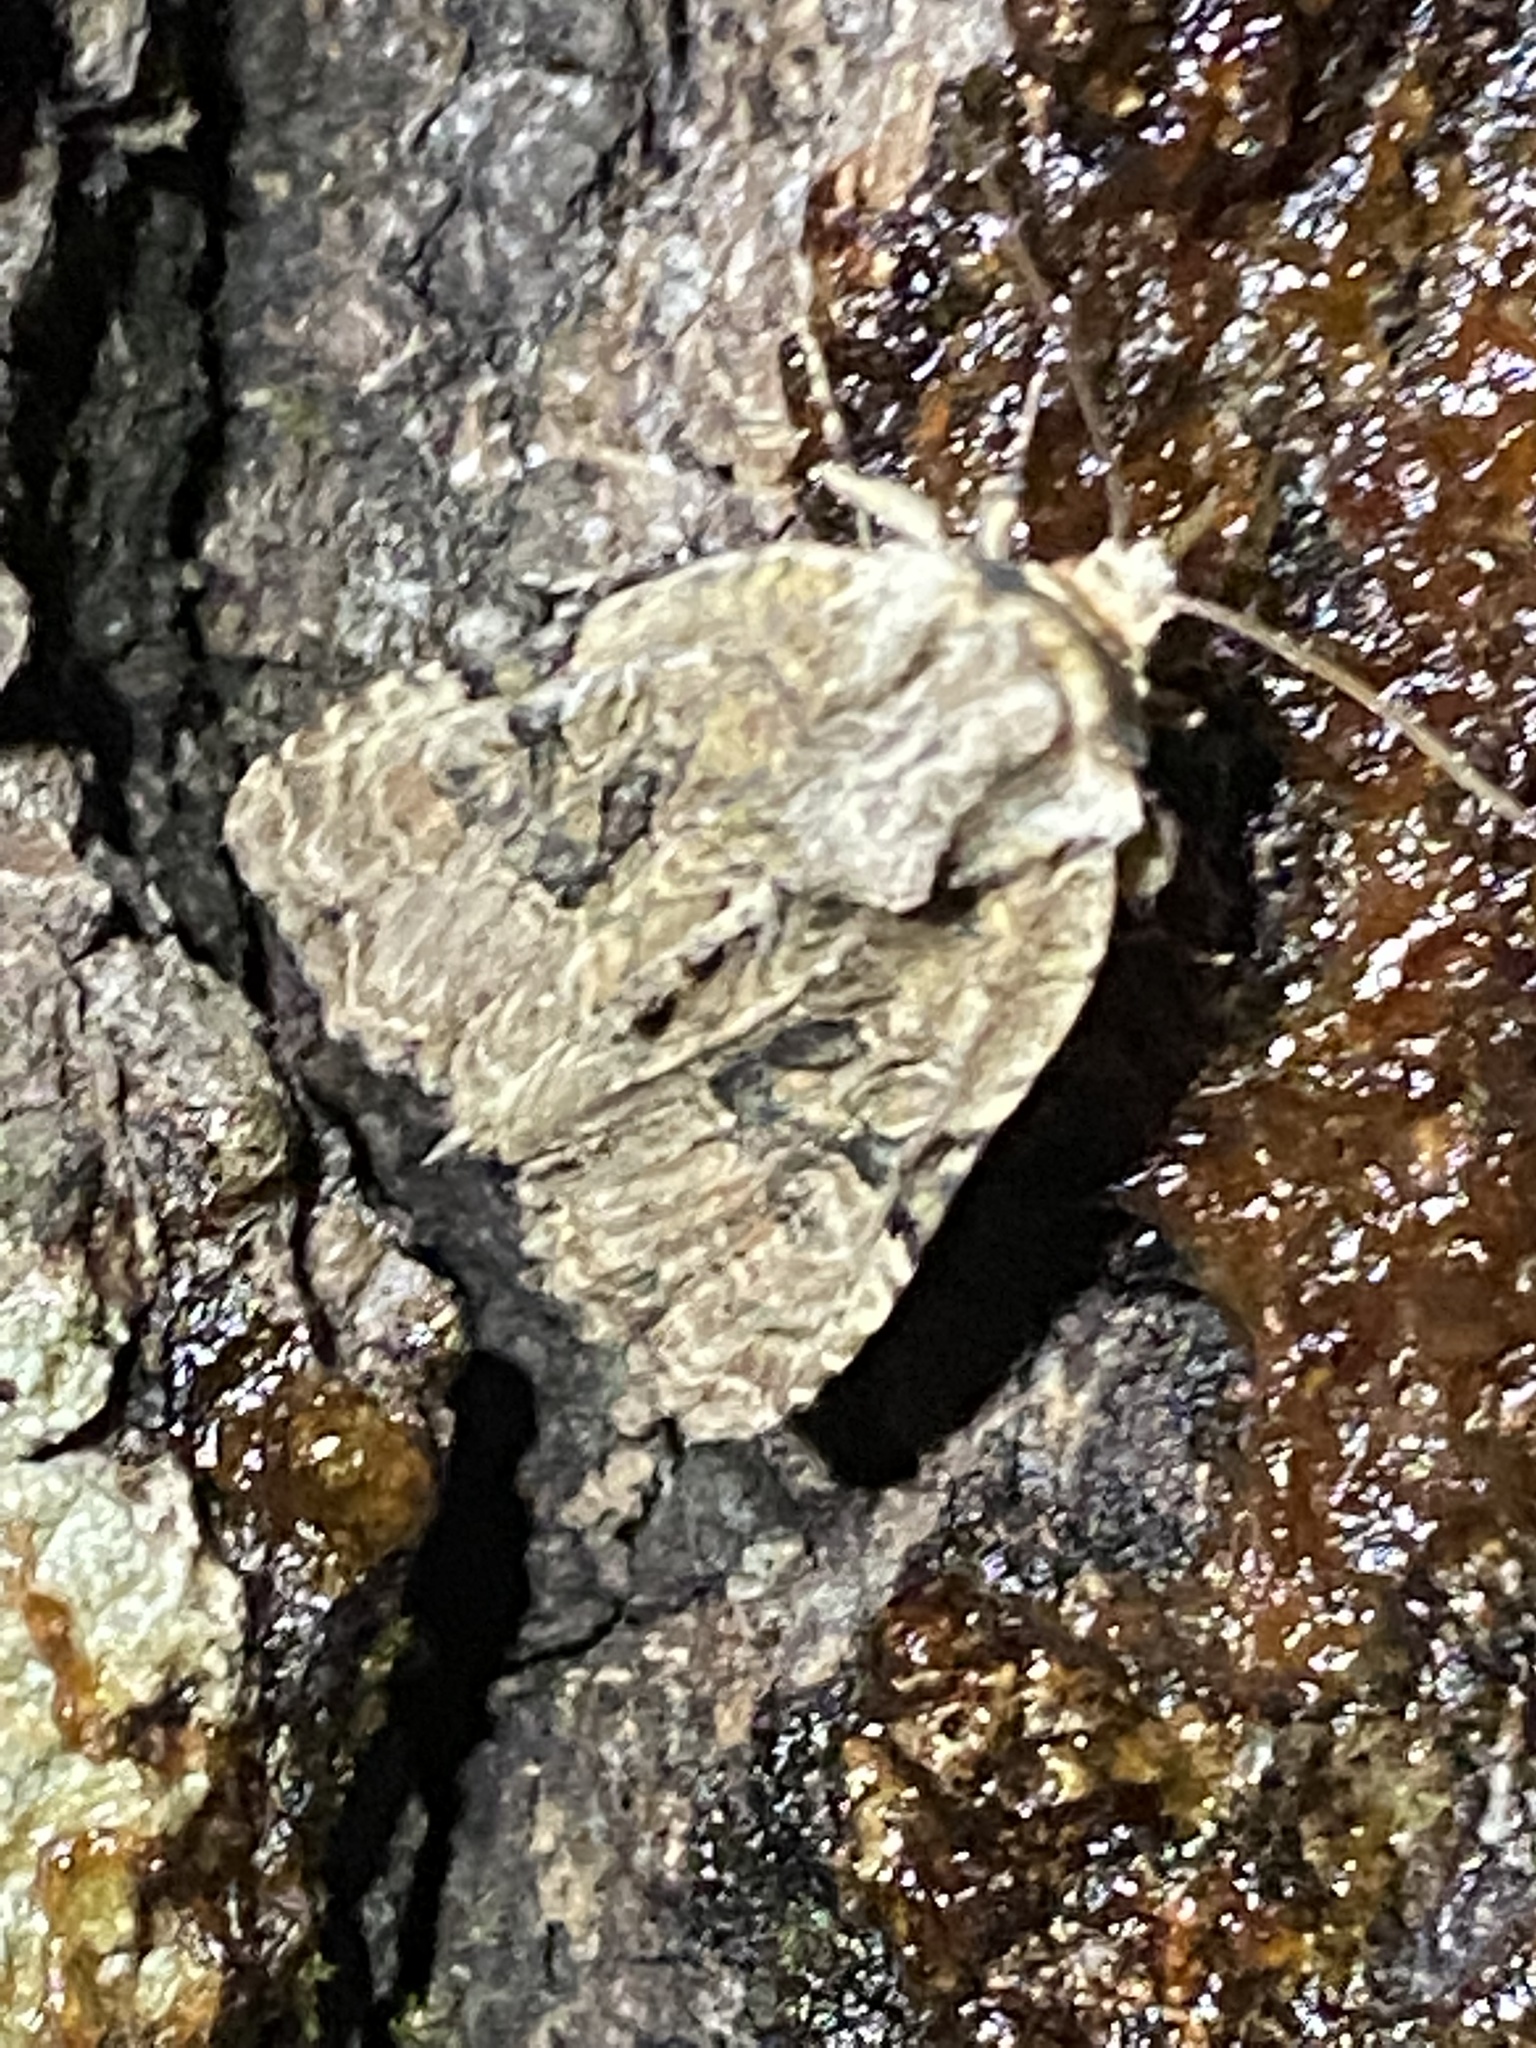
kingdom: Animalia
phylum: Arthropoda
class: Insecta
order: Lepidoptera
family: Noctuidae
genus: Oligia
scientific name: Oligia modica
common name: Black-banded brocade
